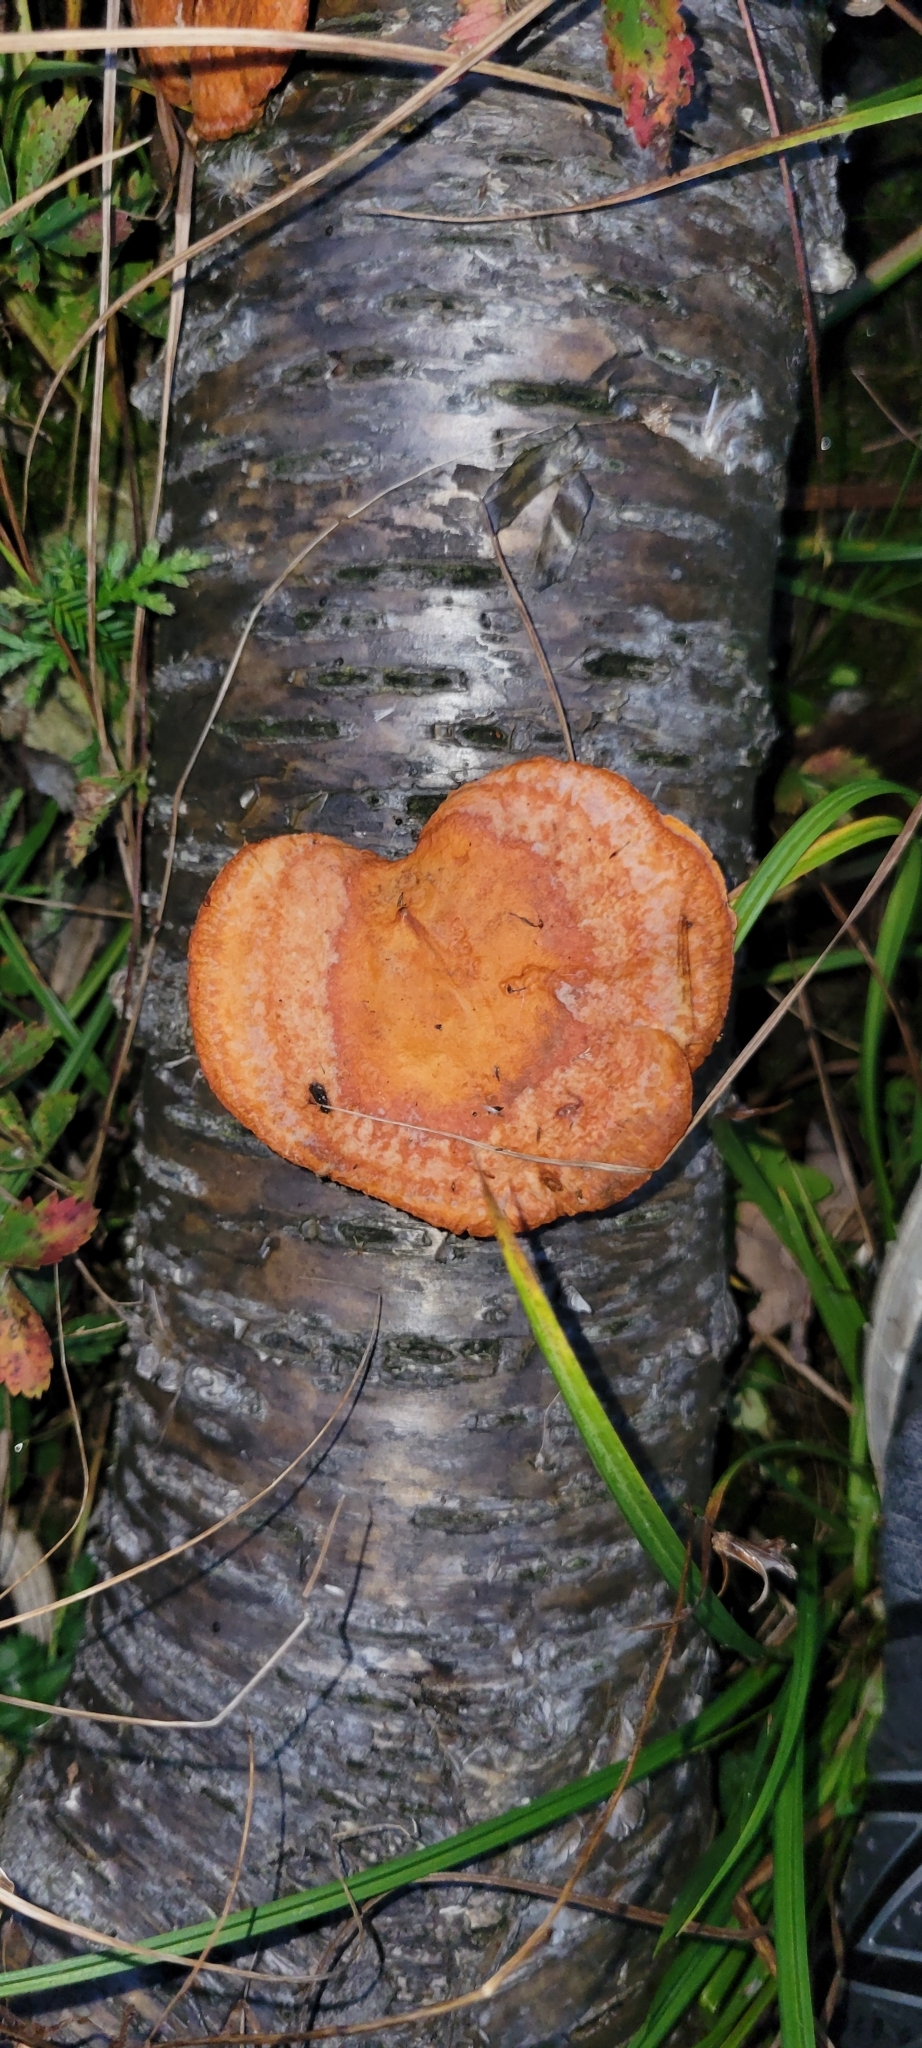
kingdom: Fungi
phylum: Basidiomycota
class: Agaricomycetes
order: Polyporales
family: Polyporaceae
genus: Trametes
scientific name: Trametes cinnabarina
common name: Northern cinnabar polypore
